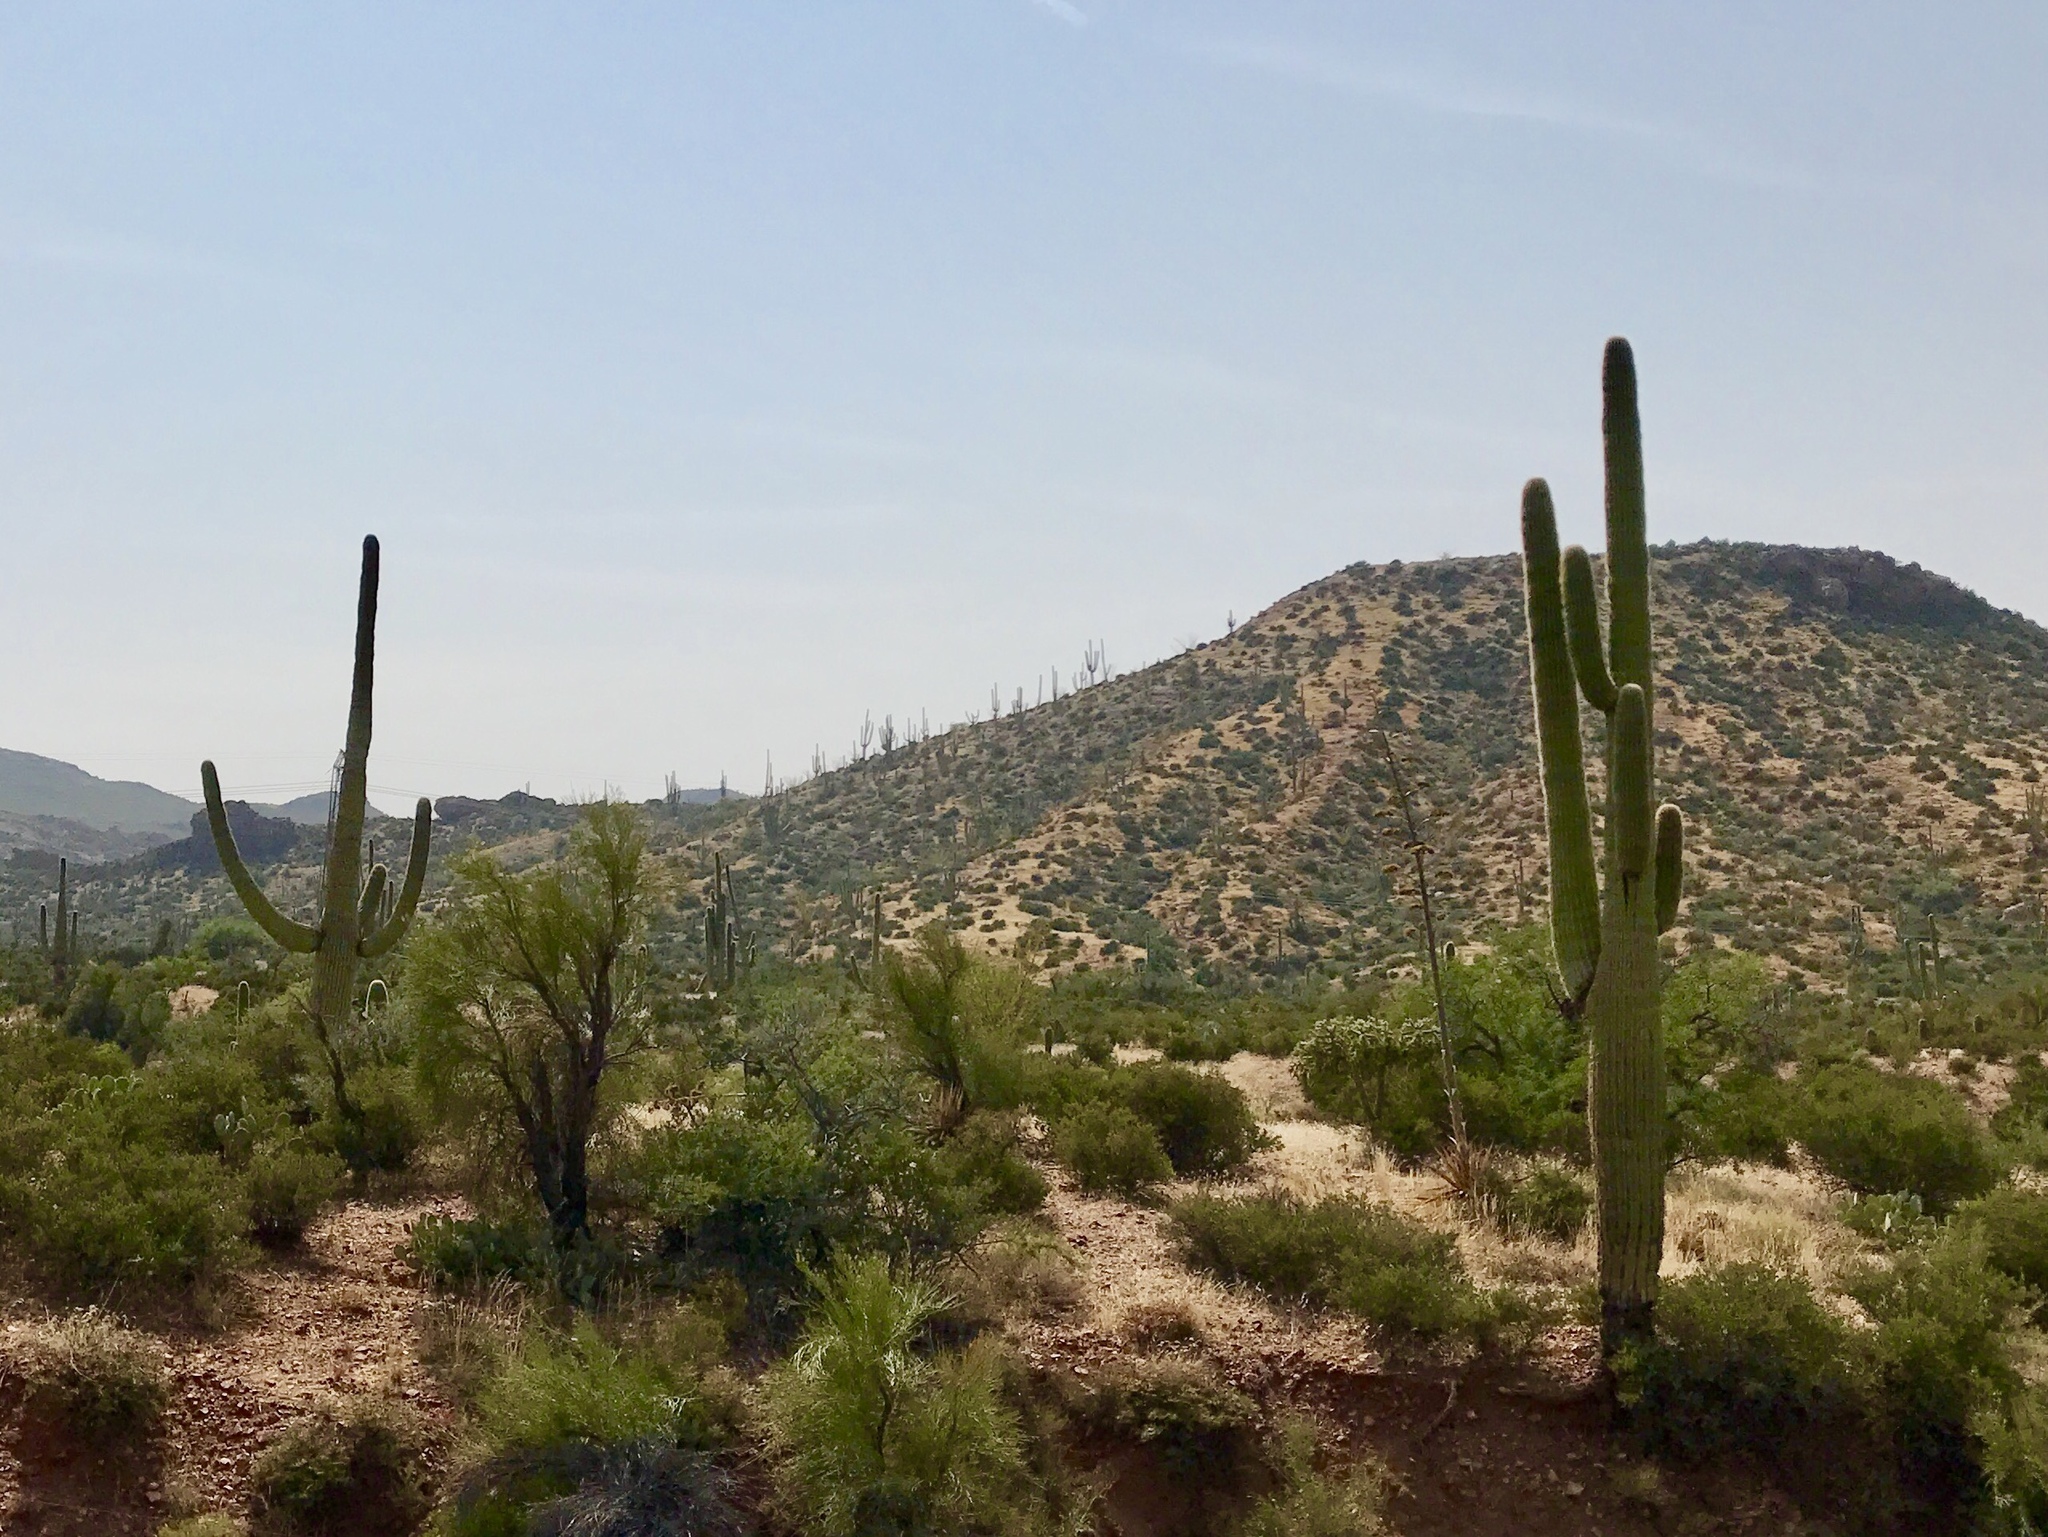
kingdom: Plantae
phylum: Tracheophyta
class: Magnoliopsida
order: Caryophyllales
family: Cactaceae
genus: Carnegiea
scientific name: Carnegiea gigantea
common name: Saguaro
